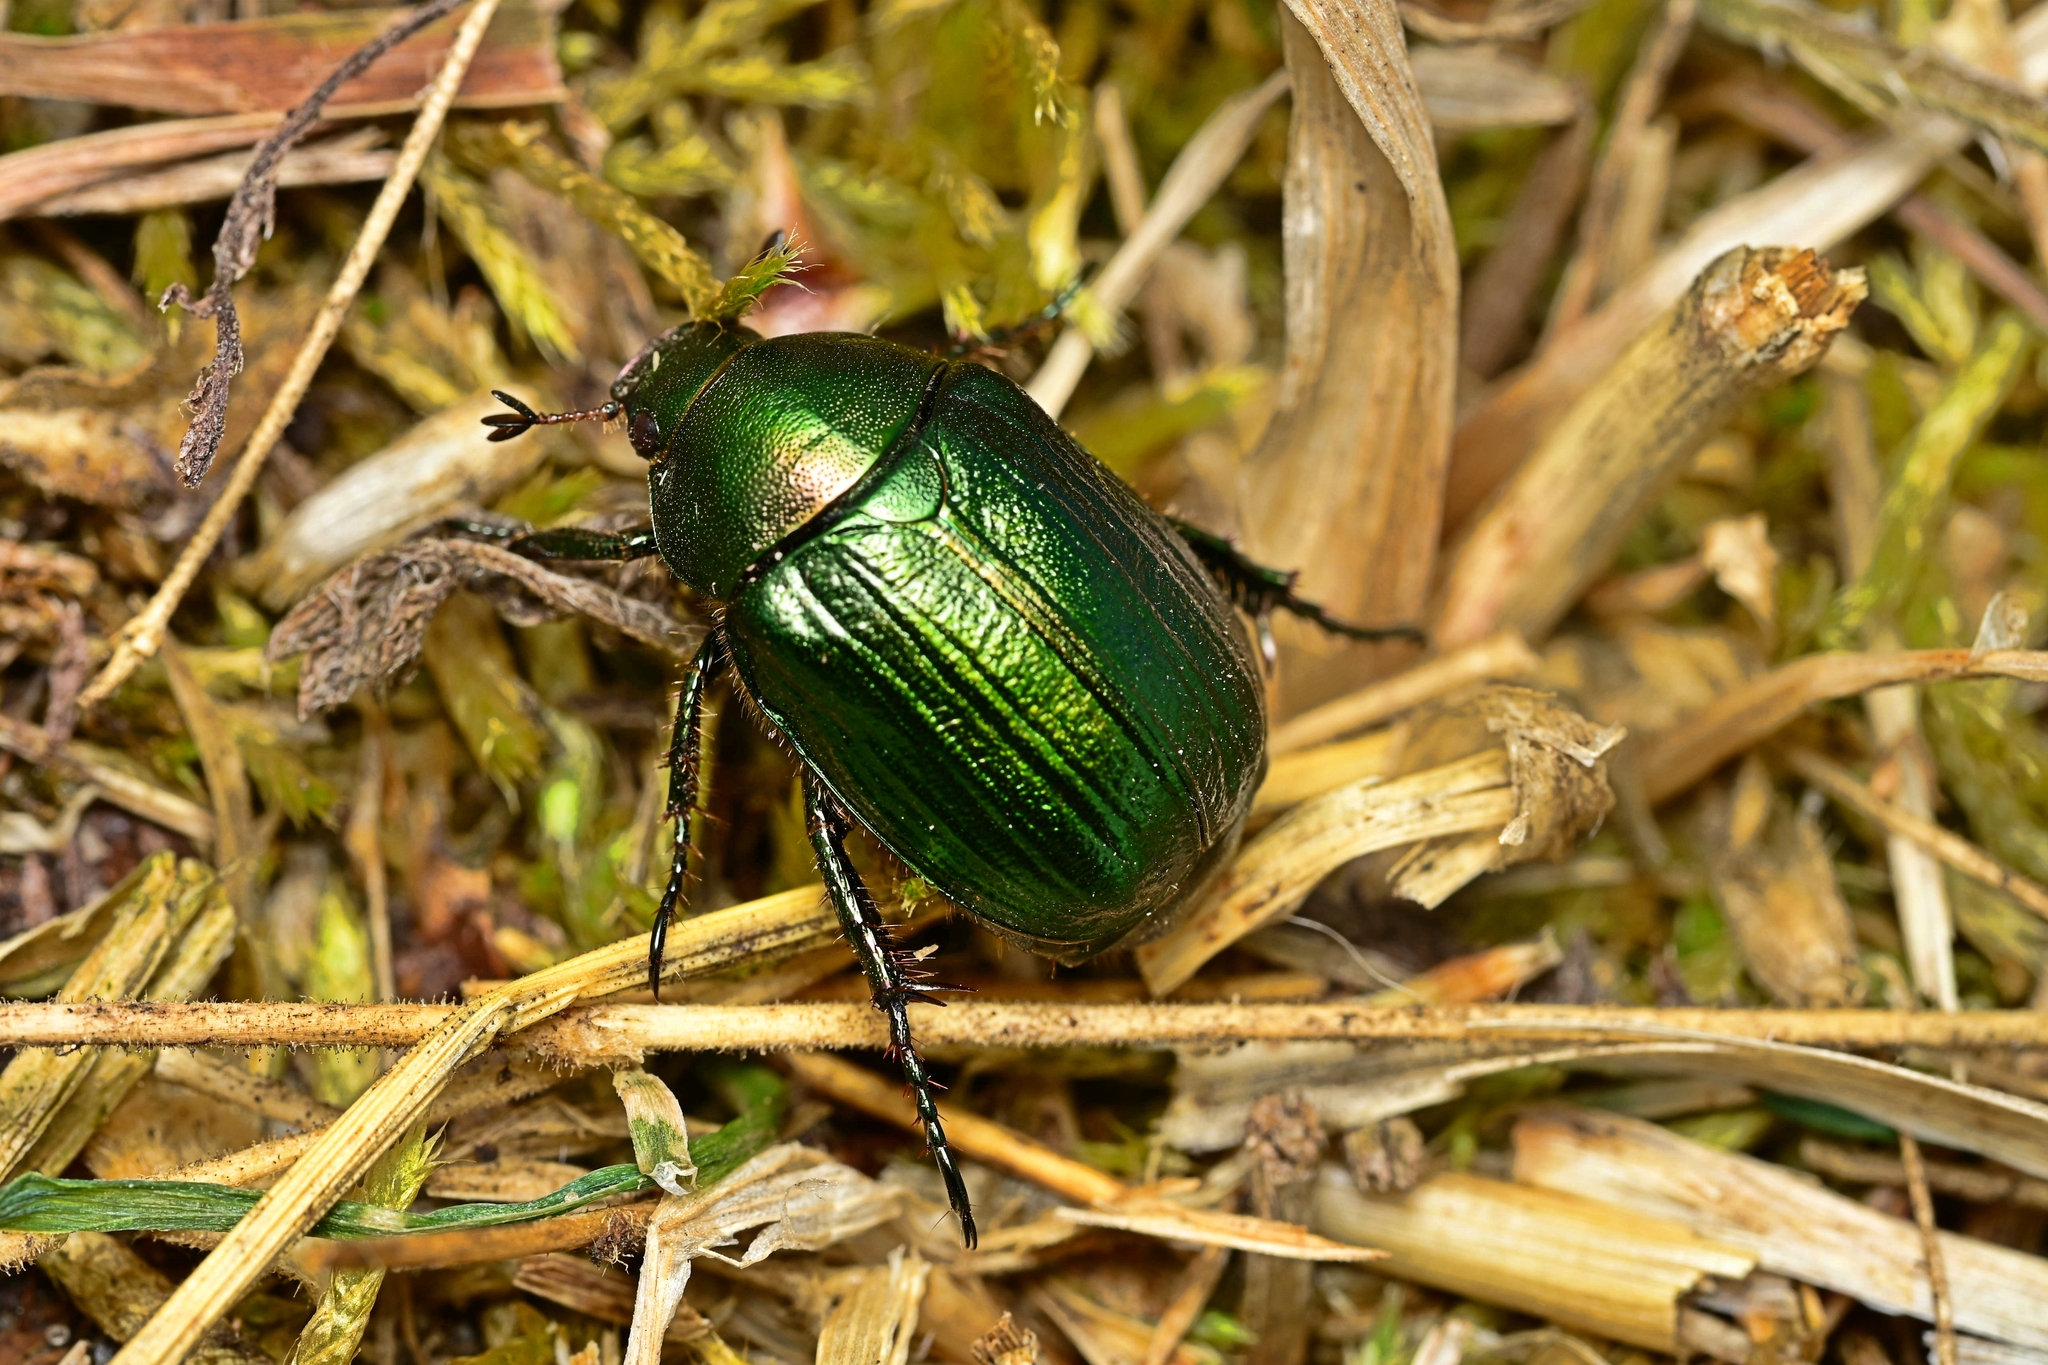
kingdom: Animalia
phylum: Arthropoda
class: Insecta
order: Coleoptera
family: Scarabaeidae
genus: Anomala
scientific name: Anomala dubia
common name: Dune chafer
